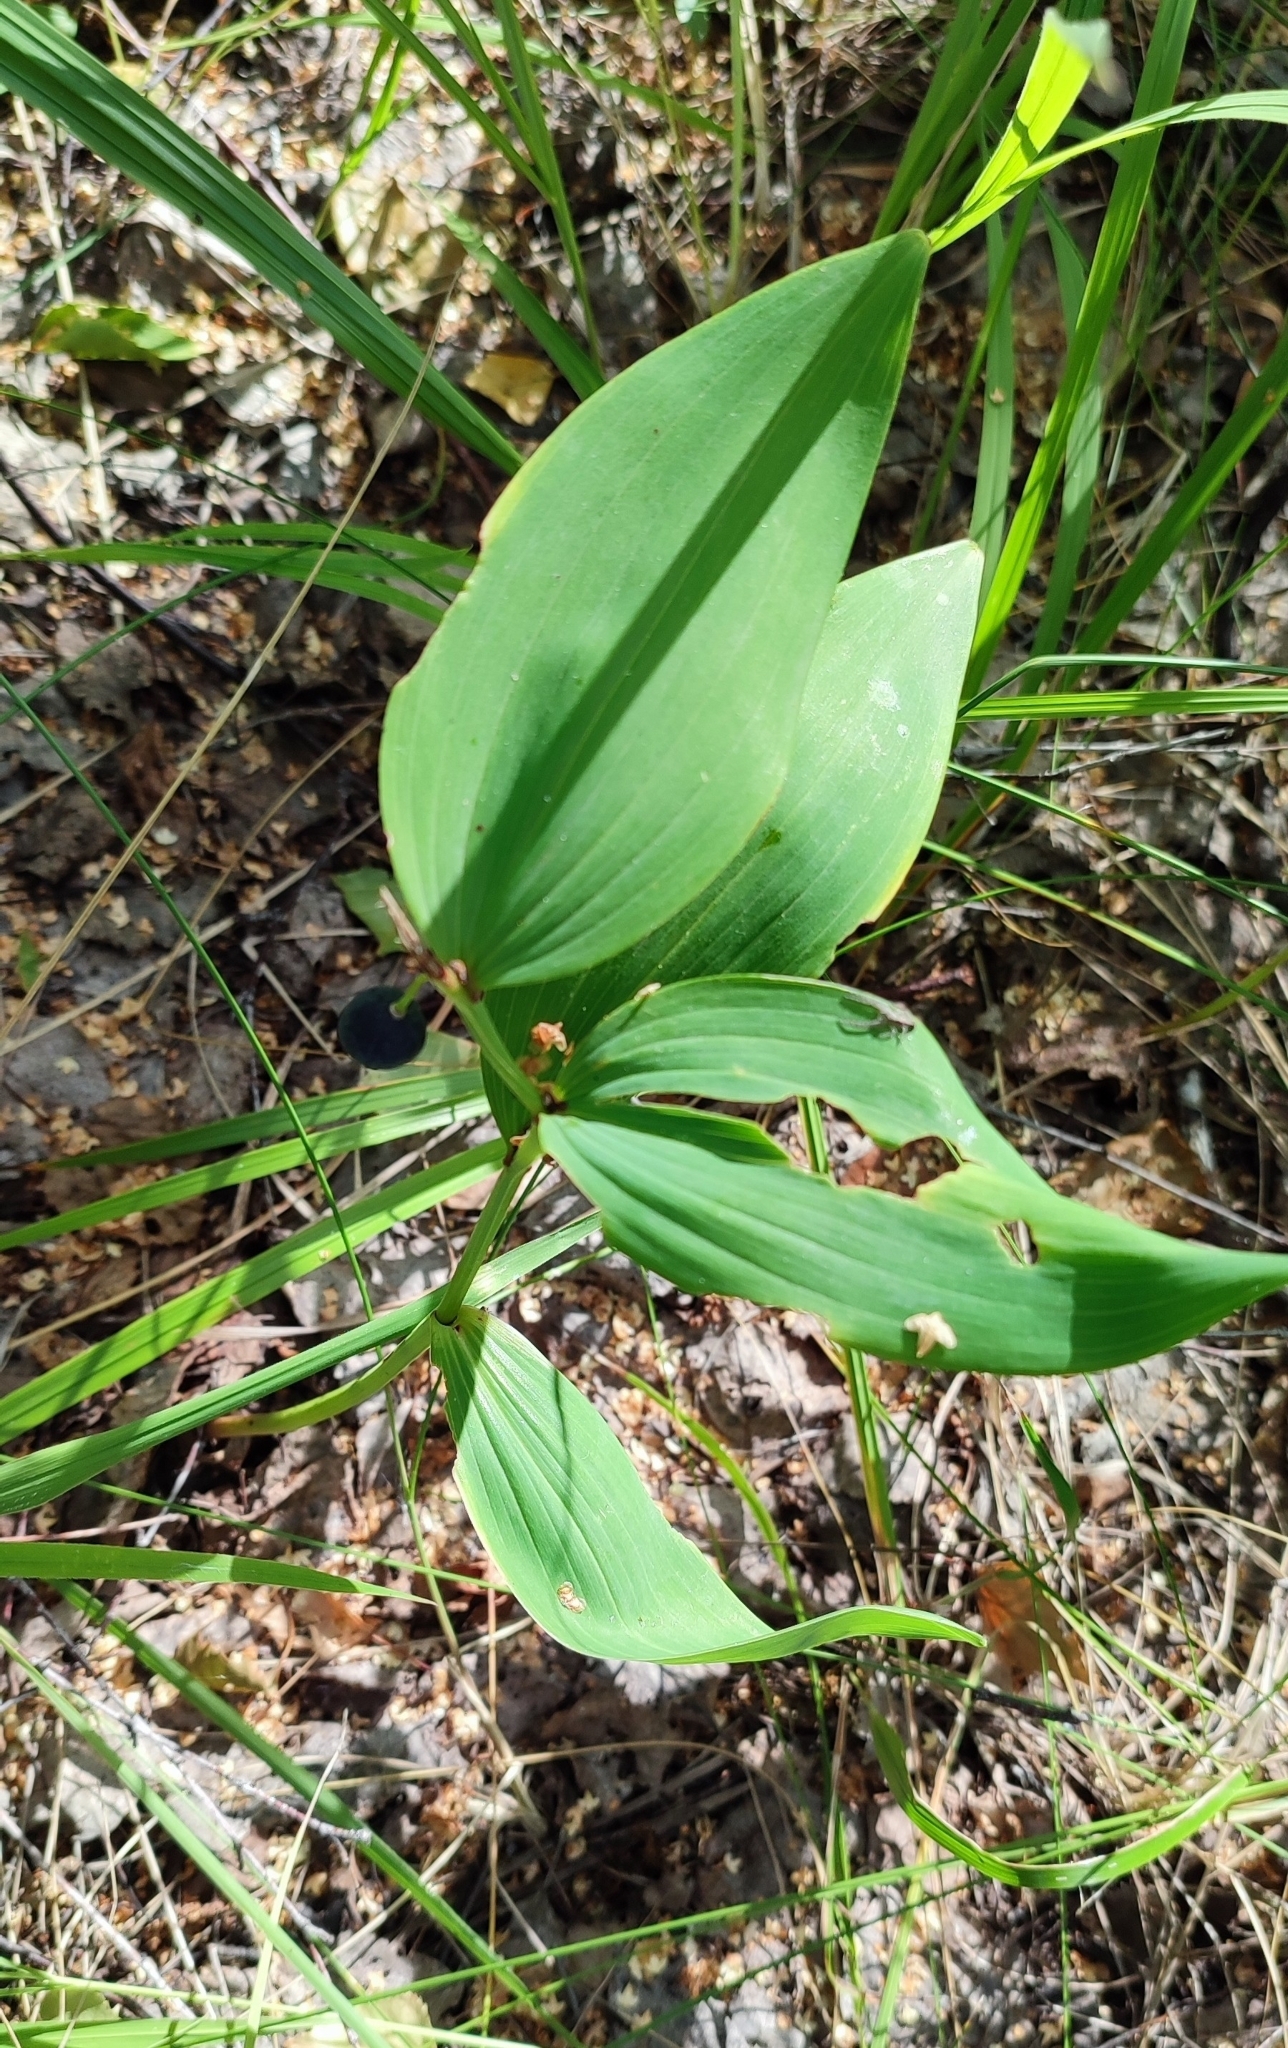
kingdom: Plantae
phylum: Tracheophyta
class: Liliopsida
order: Asparagales
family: Asparagaceae
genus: Polygonatum
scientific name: Polygonatum odoratum
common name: Angular solomon's-seal
